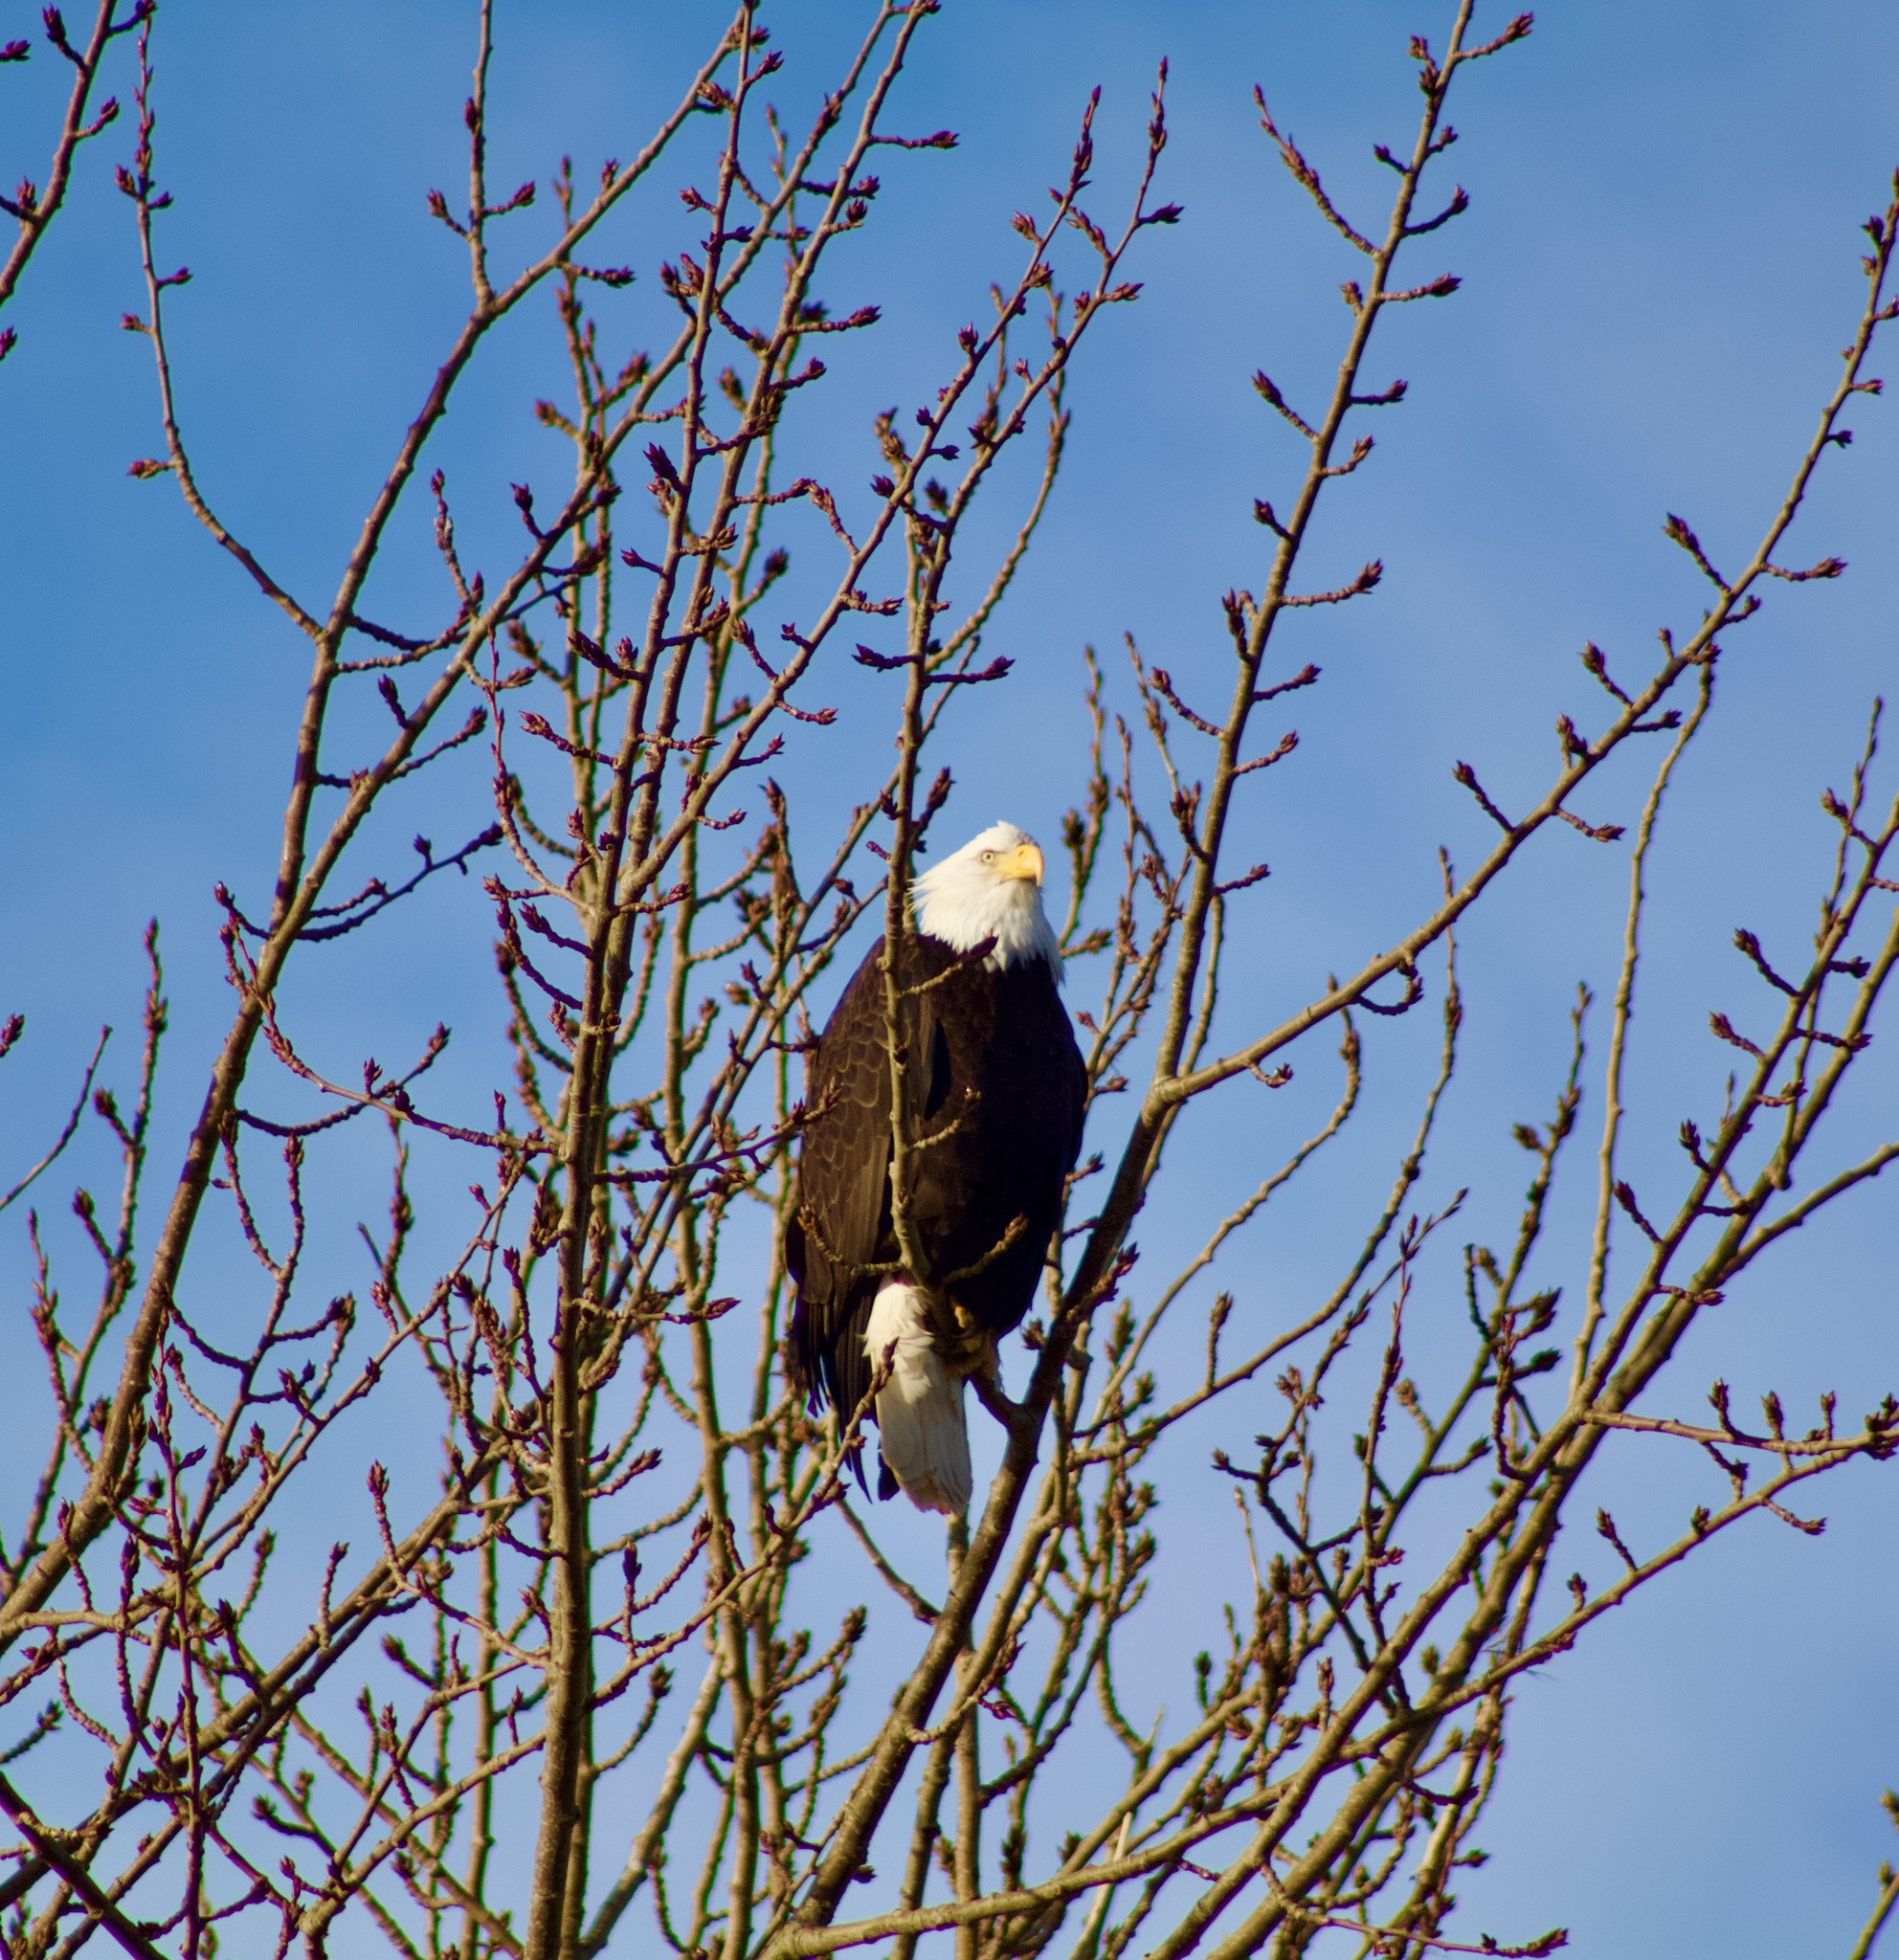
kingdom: Animalia
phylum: Chordata
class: Aves
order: Accipitriformes
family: Accipitridae
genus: Haliaeetus
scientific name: Haliaeetus leucocephalus
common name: Bald eagle
